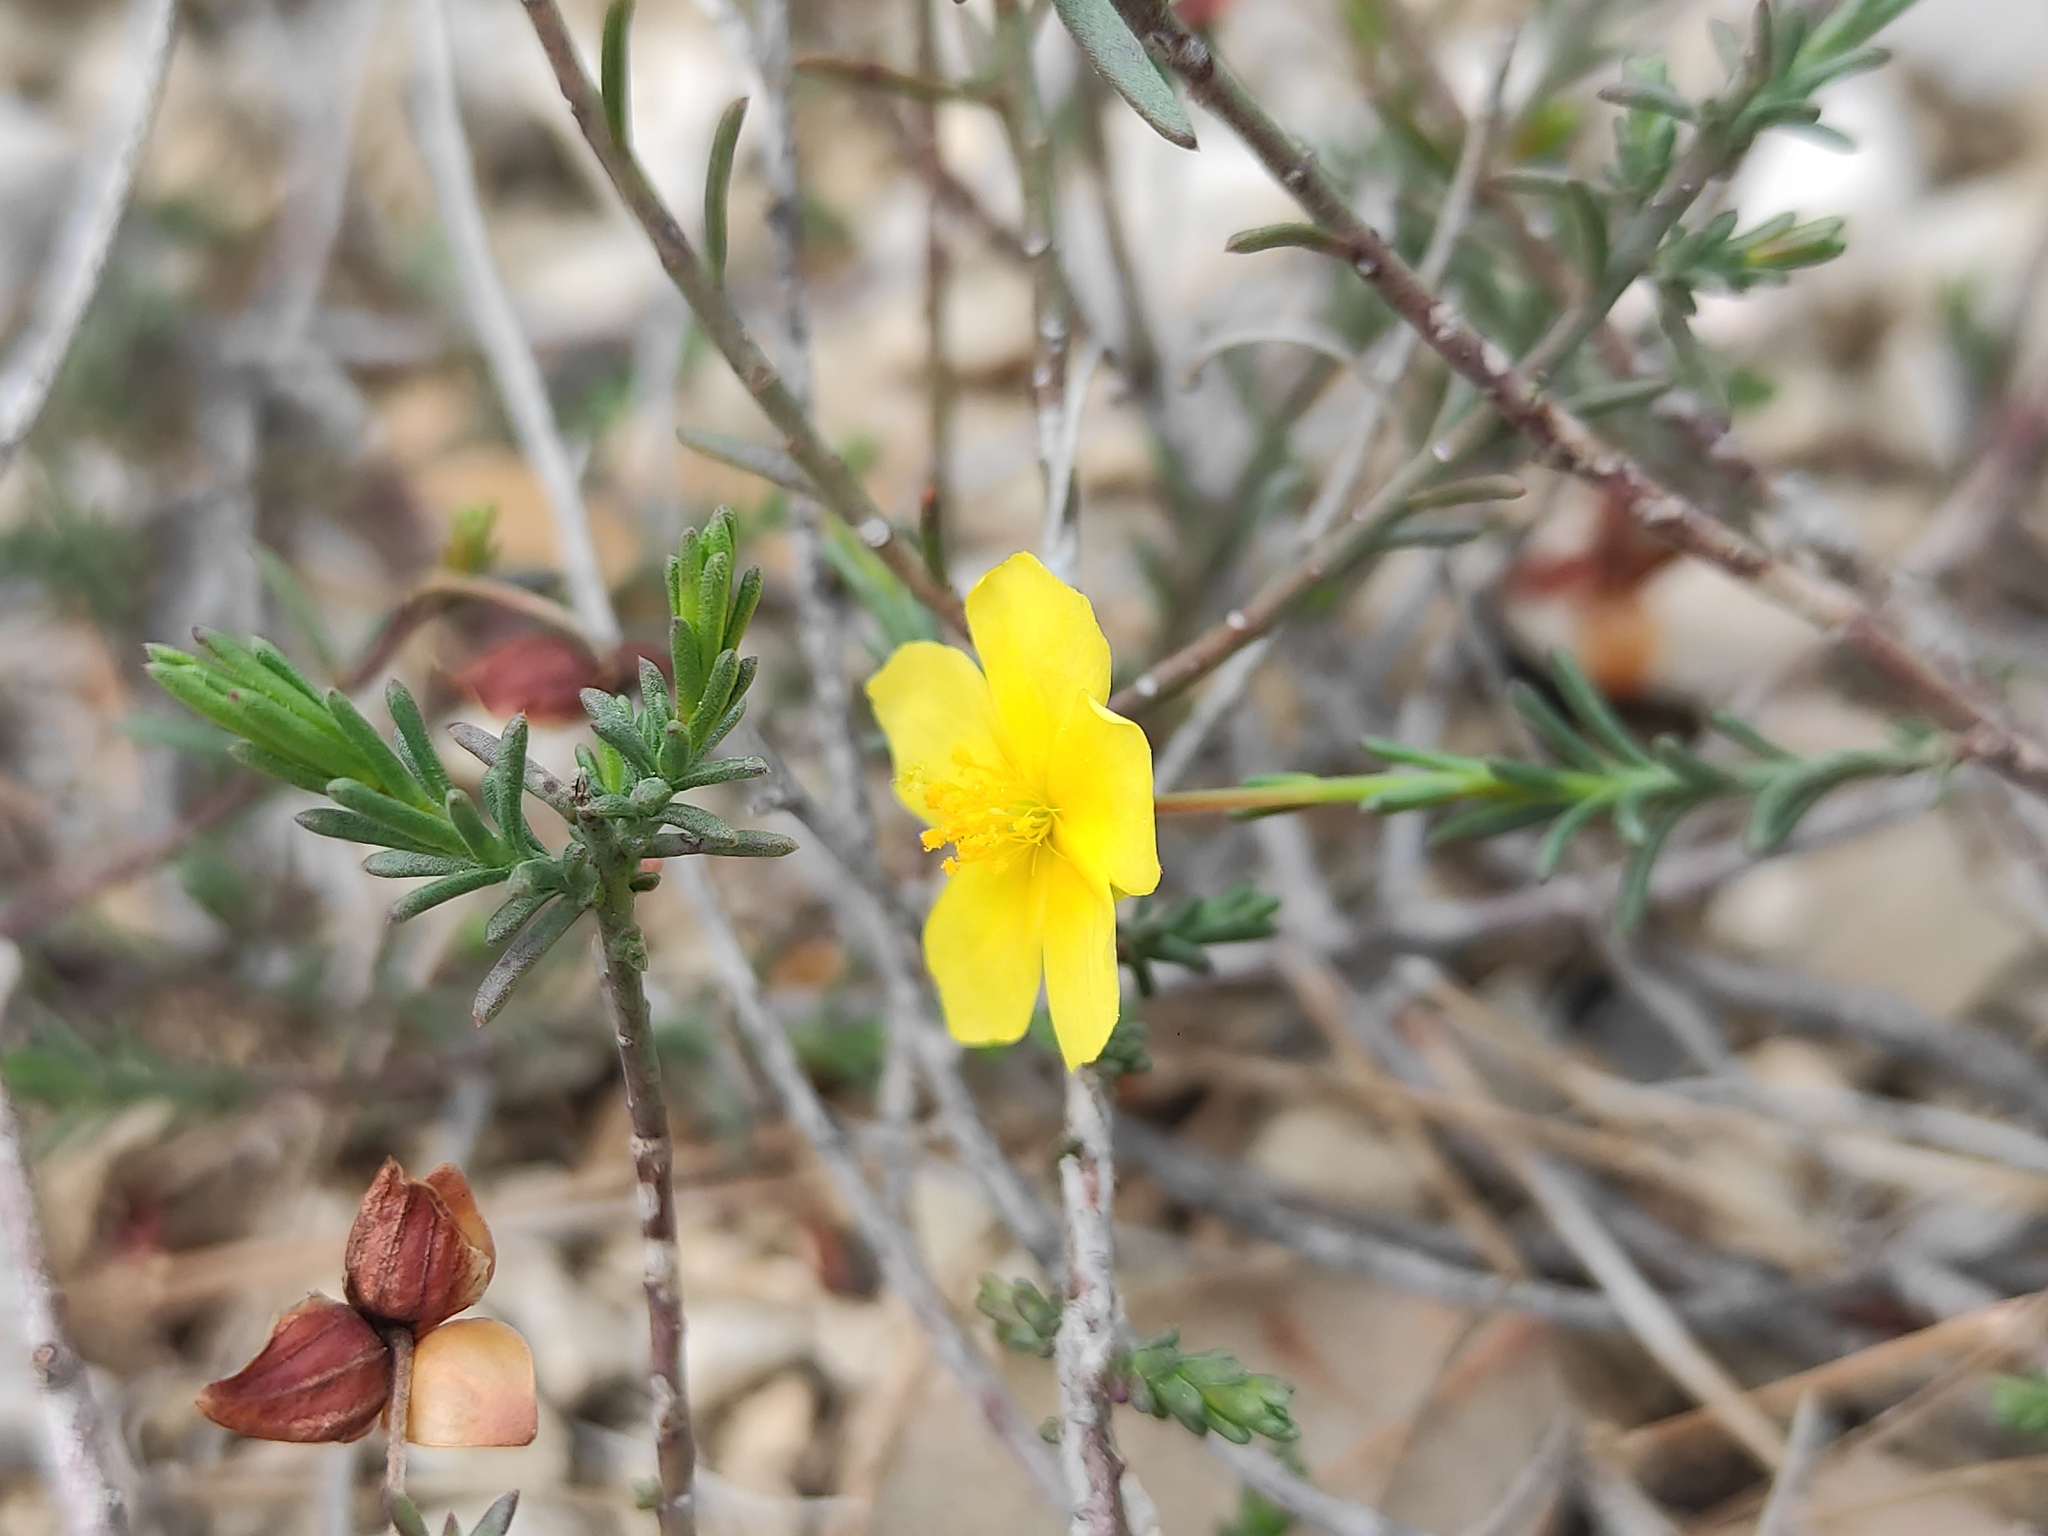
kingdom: Plantae
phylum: Tracheophyta
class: Magnoliopsida
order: Malvales
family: Cistaceae
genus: Fumana
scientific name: Fumana ericifolia
